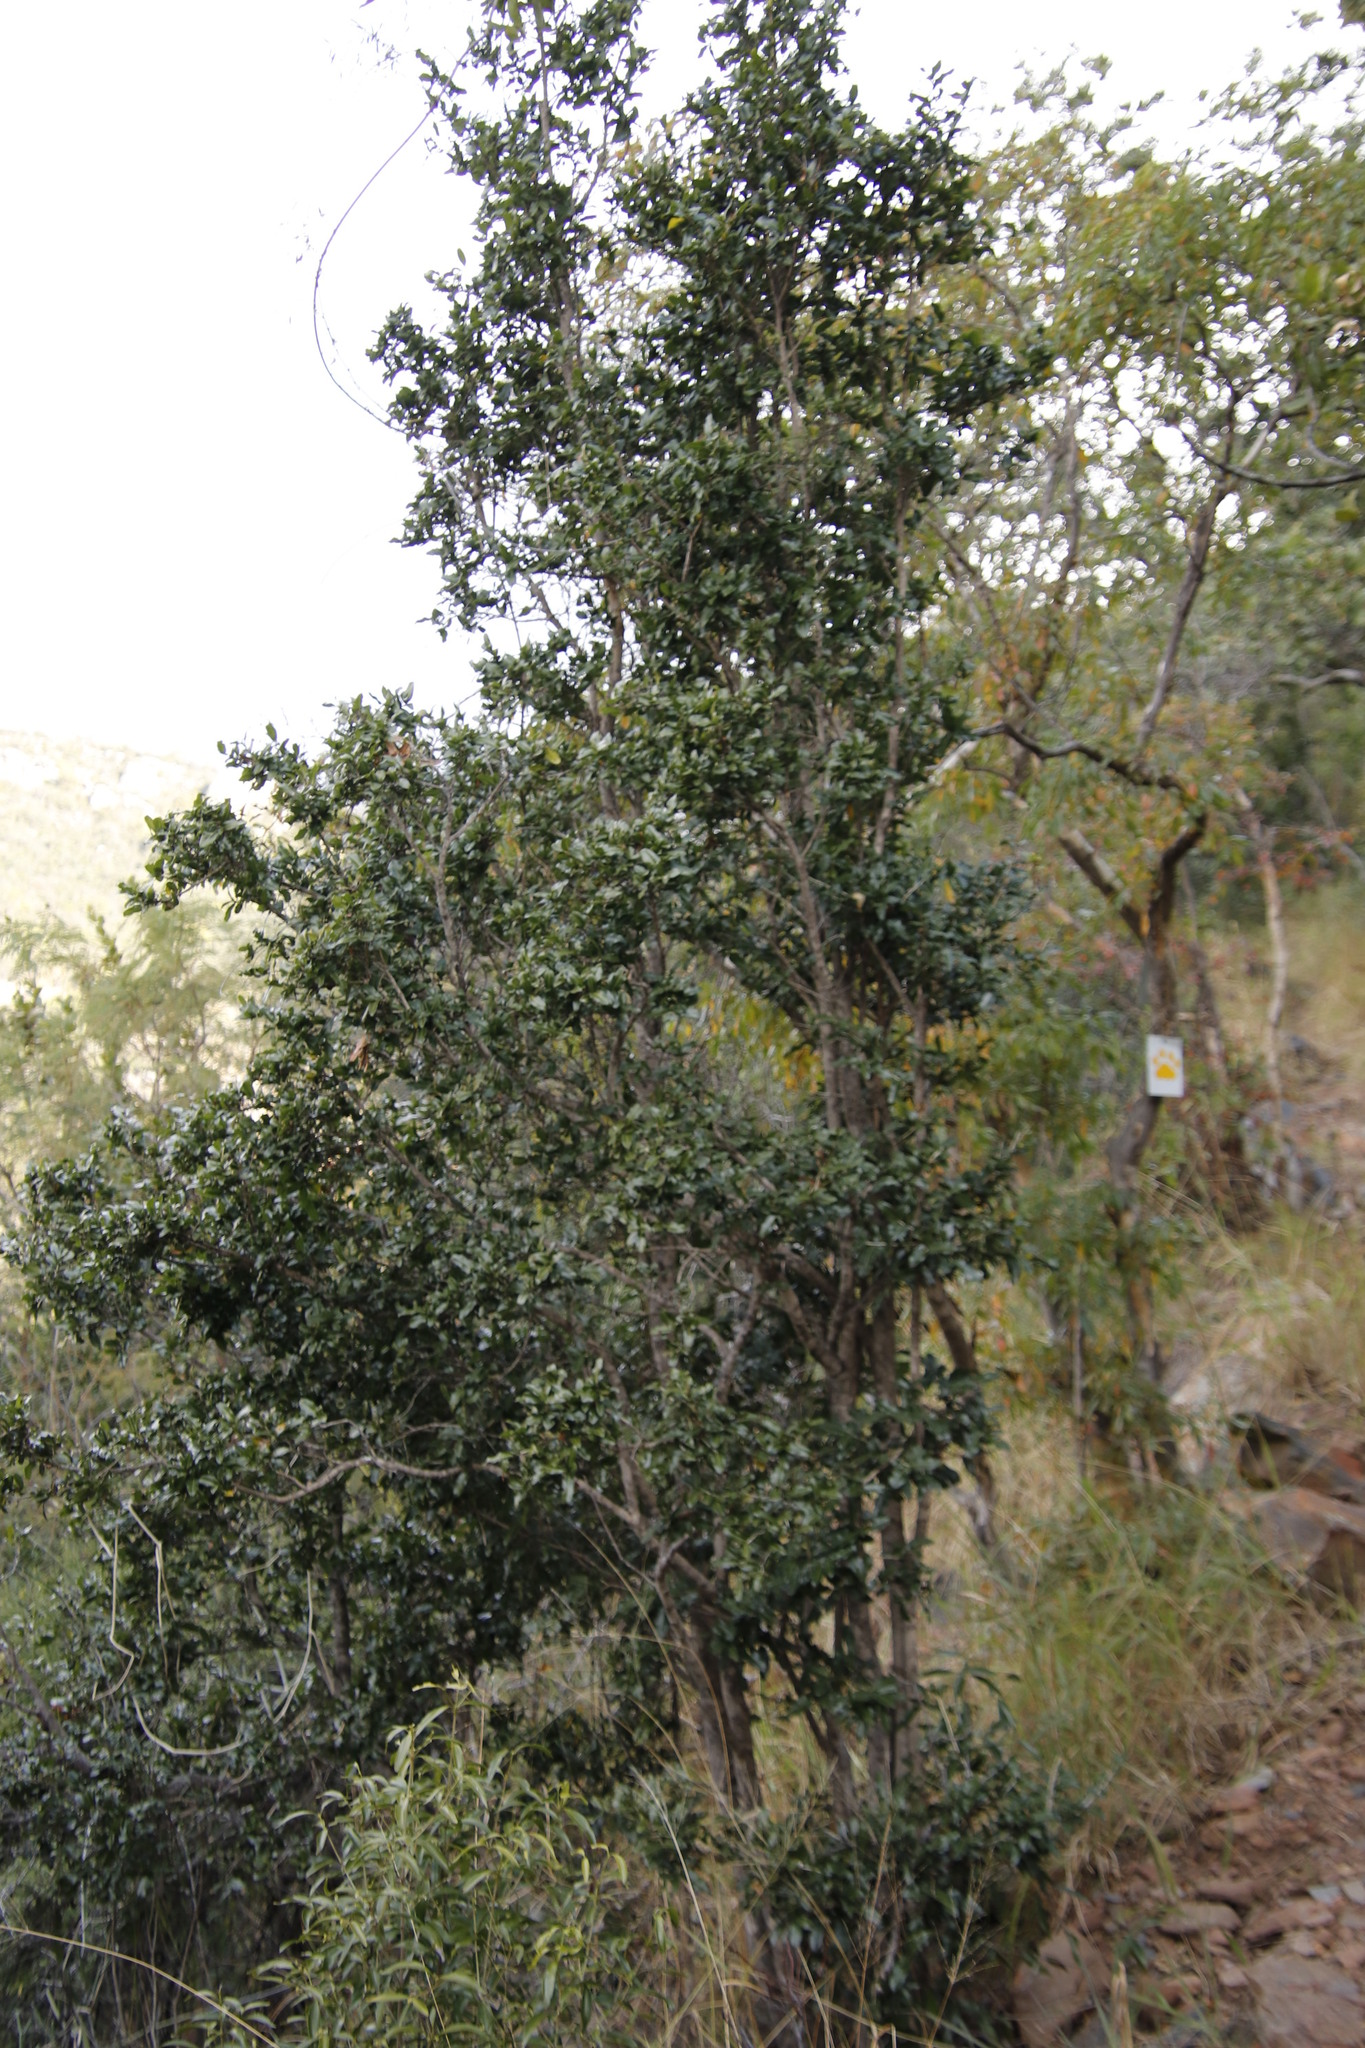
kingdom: Plantae
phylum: Tracheophyta
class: Magnoliopsida
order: Sapindales
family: Sapindaceae
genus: Pappea
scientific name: Pappea capensis
